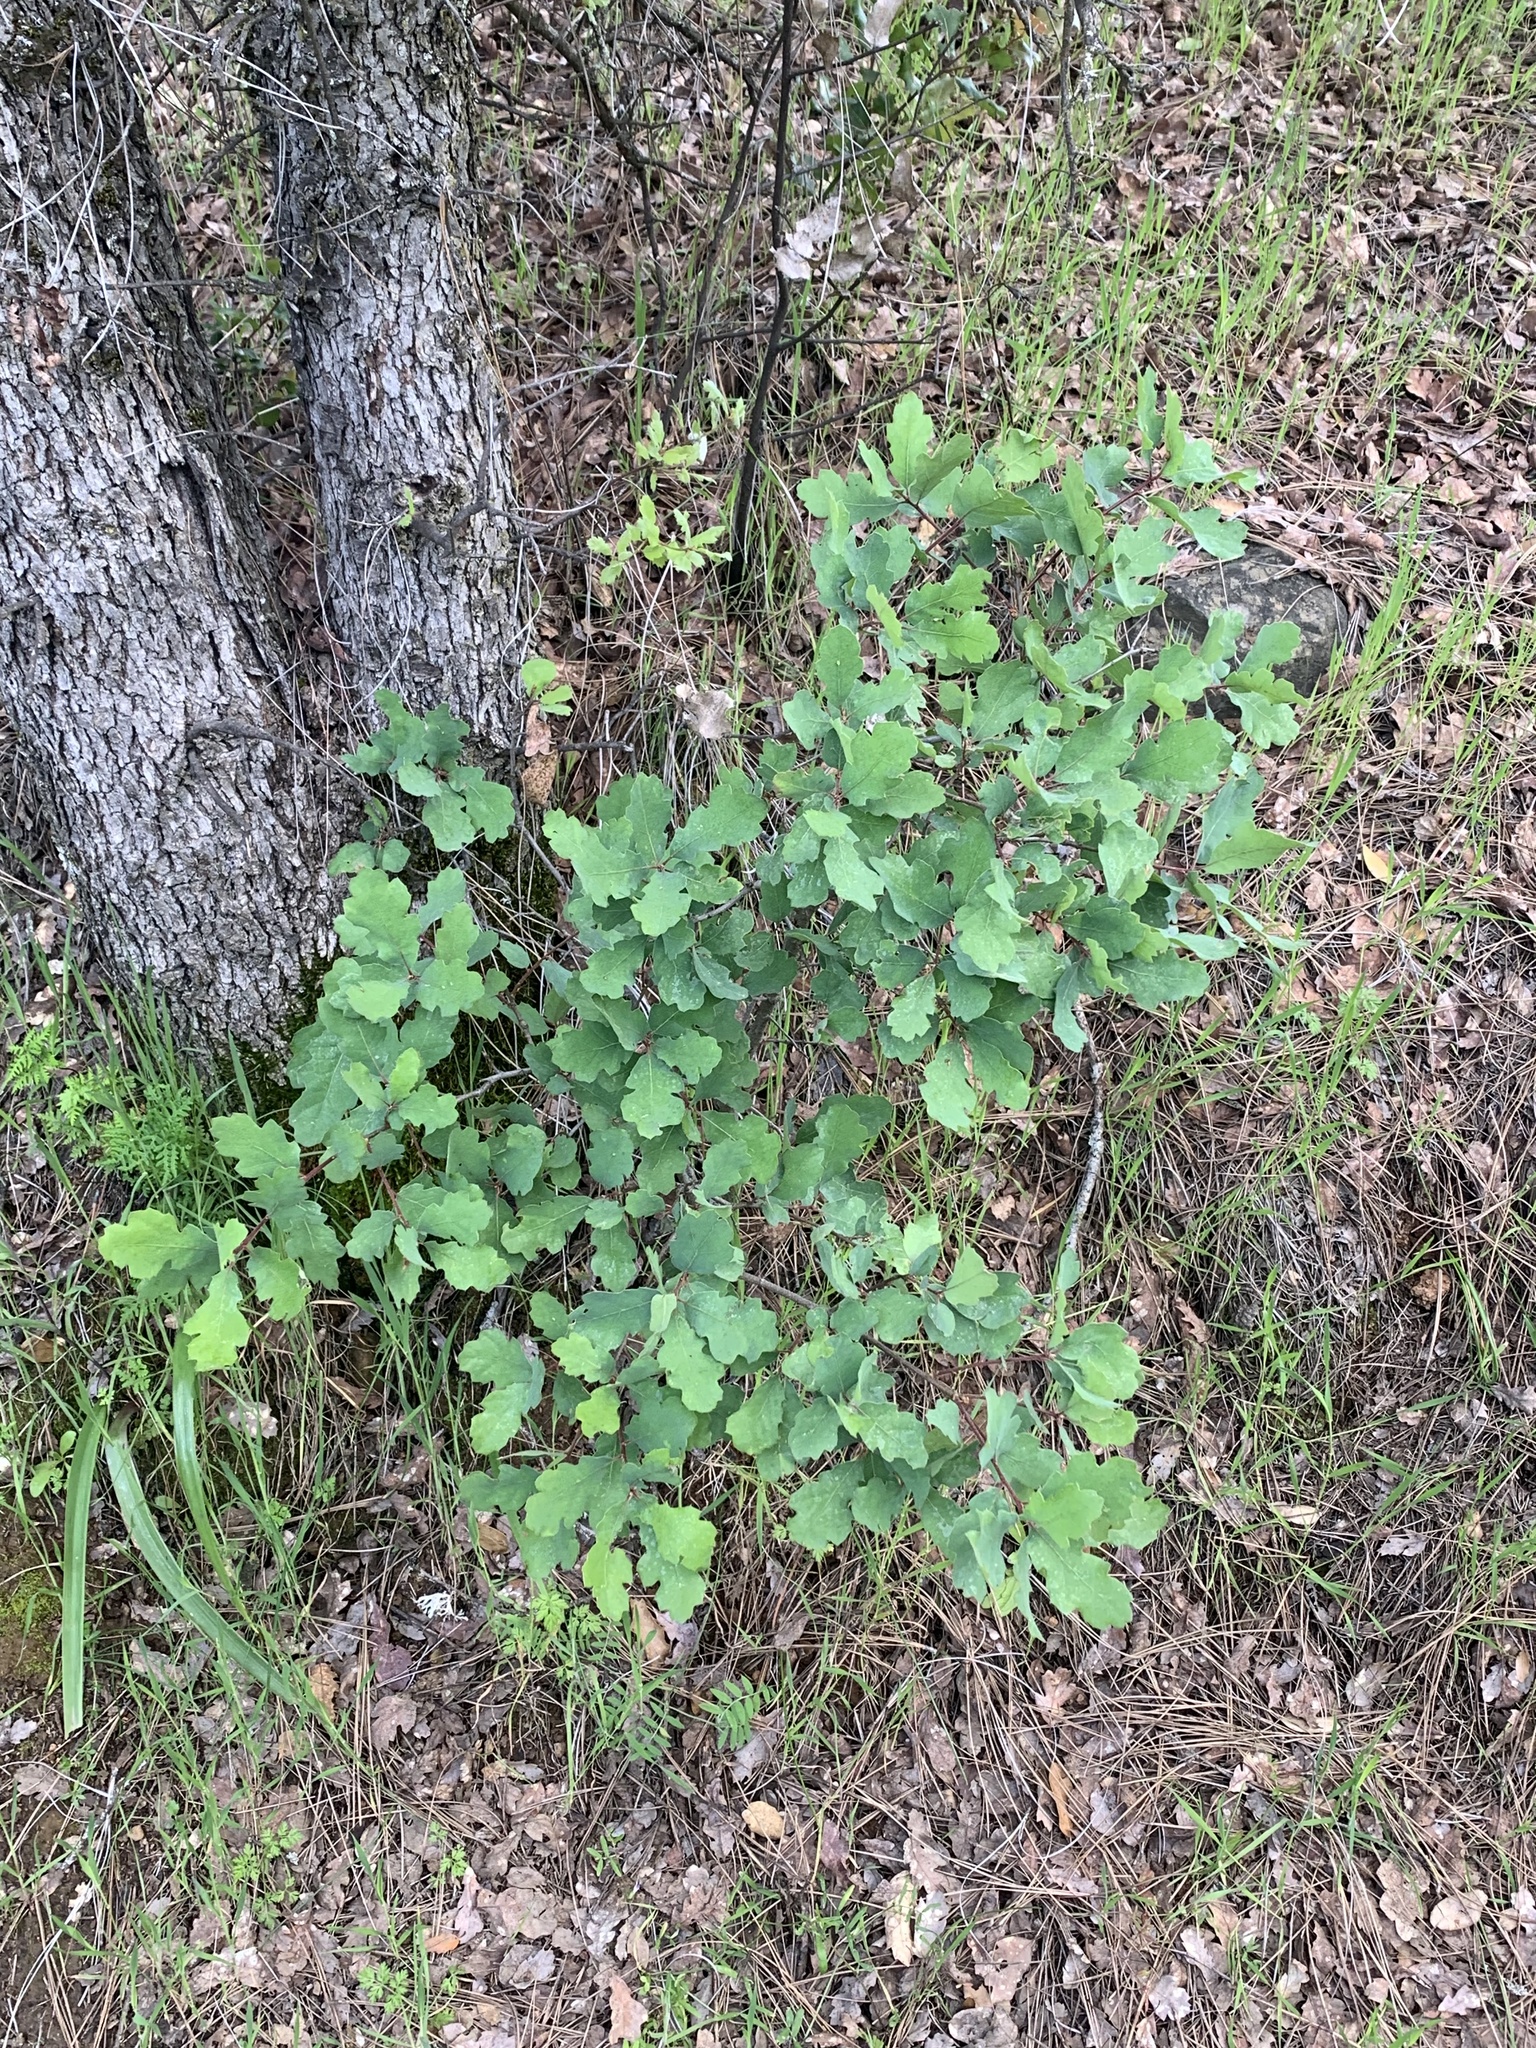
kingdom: Plantae
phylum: Tracheophyta
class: Magnoliopsida
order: Fagales
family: Fagaceae
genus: Quercus
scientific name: Quercus douglasii
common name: Blue oak
